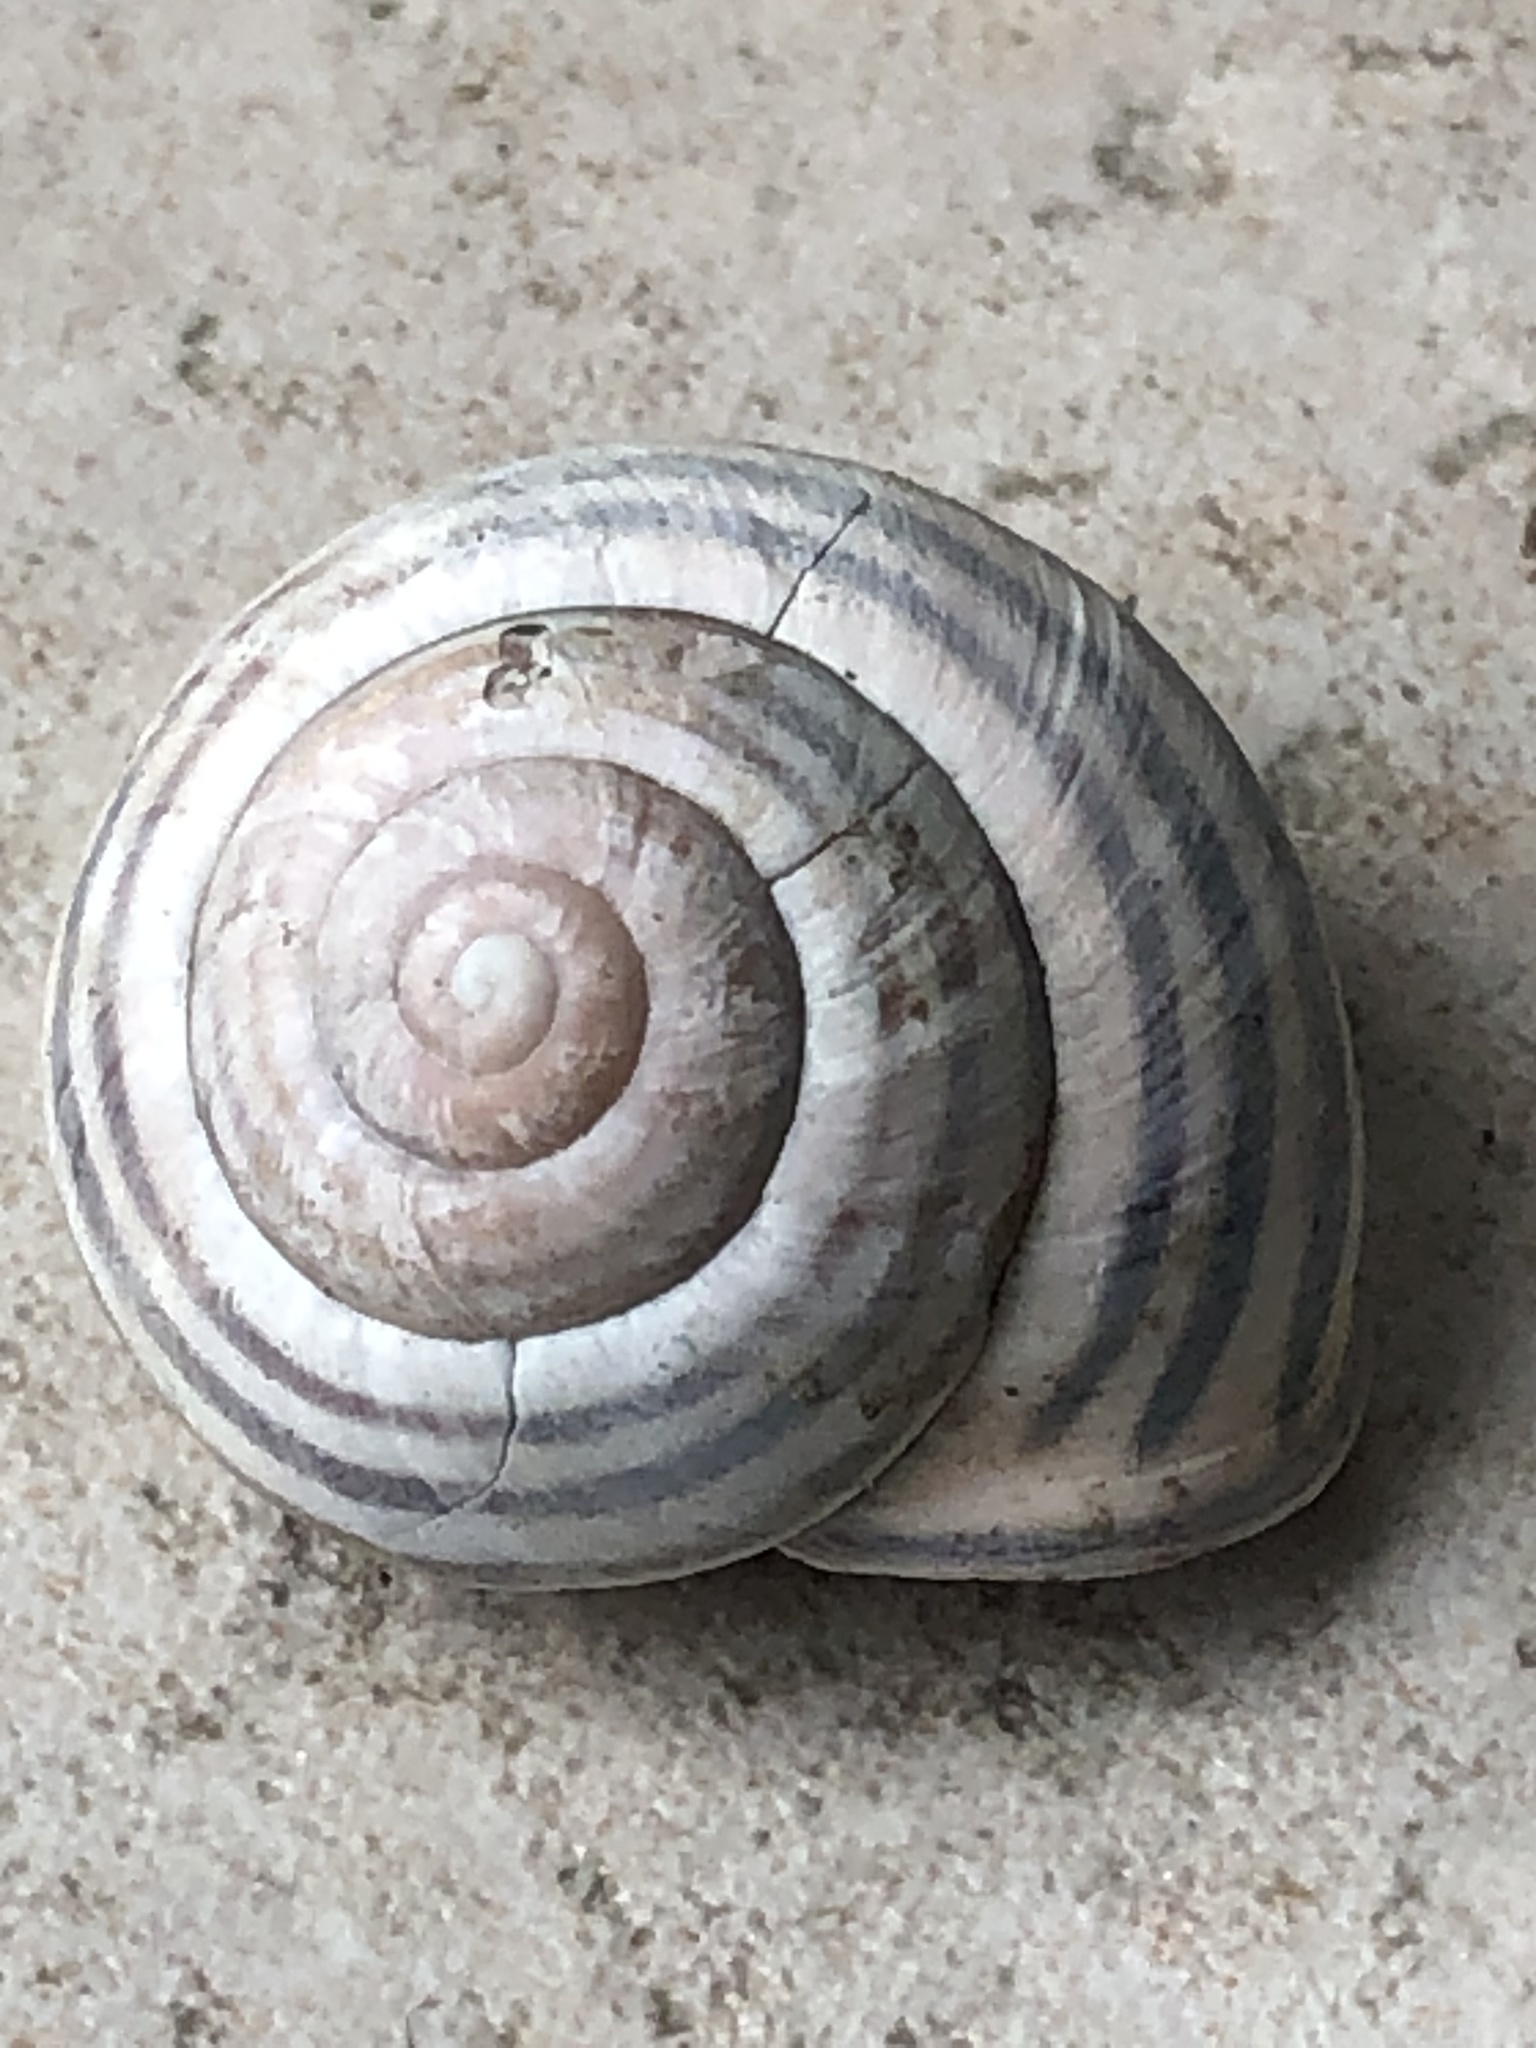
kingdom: Animalia
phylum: Mollusca
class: Gastropoda
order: Stylommatophora
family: Helicidae
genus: Cepaea
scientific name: Cepaea nemoralis
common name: Grovesnail
